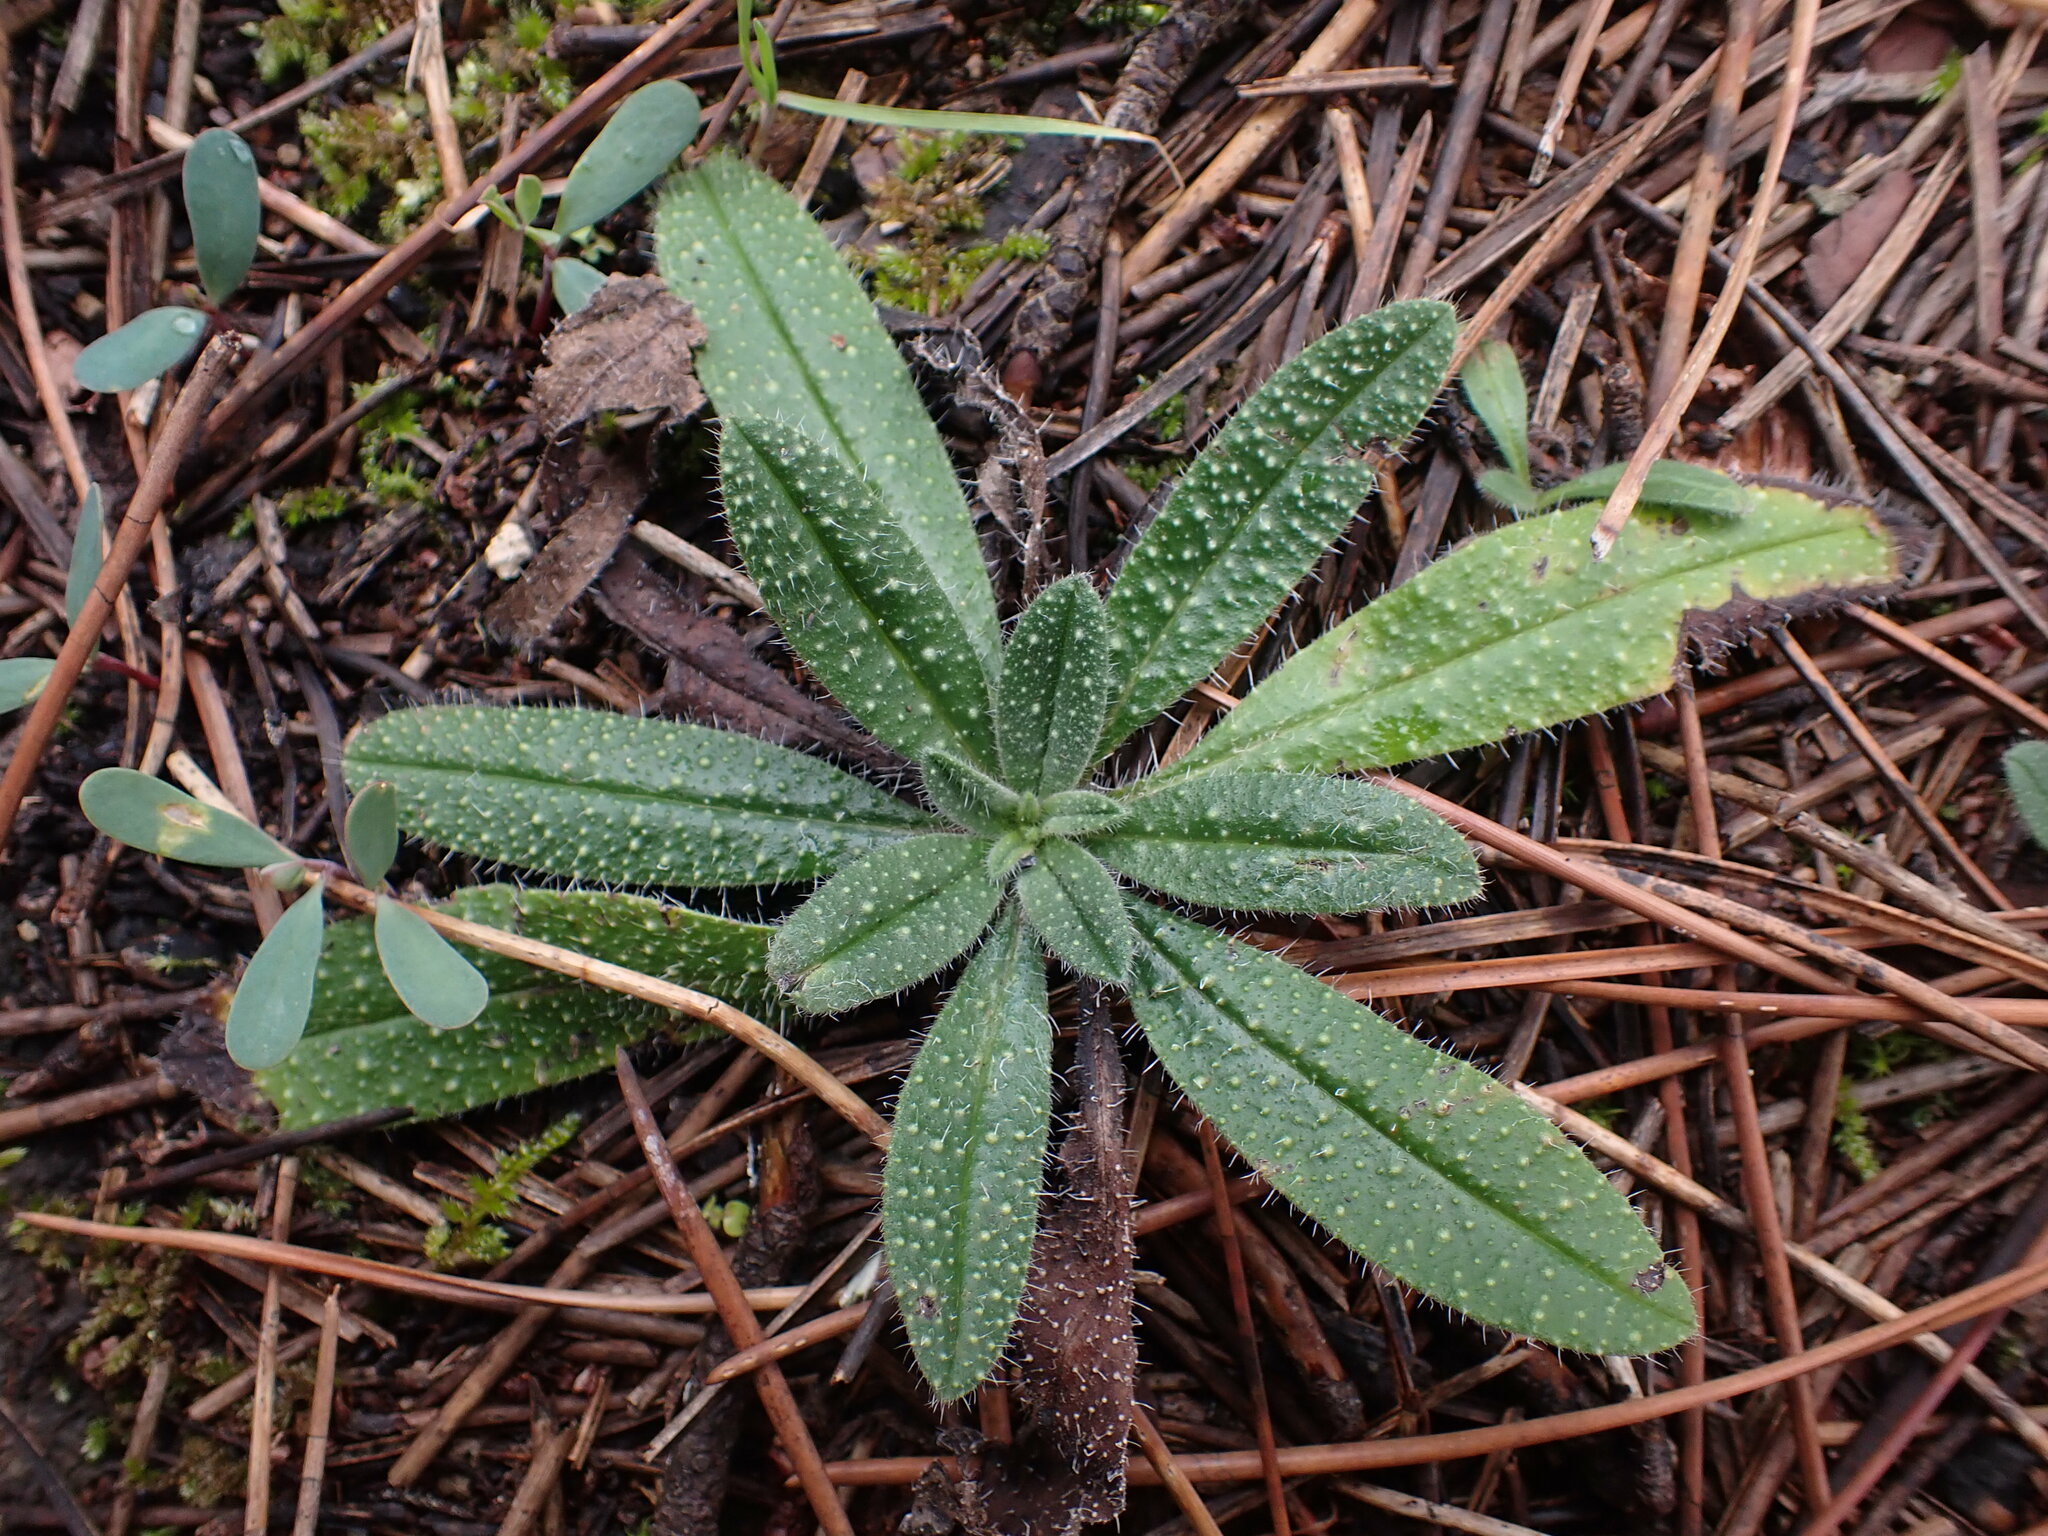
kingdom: Plantae
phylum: Tracheophyta
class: Magnoliopsida
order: Boraginales
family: Boraginaceae
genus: Echium
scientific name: Echium vulgare
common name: Common viper's bugloss
